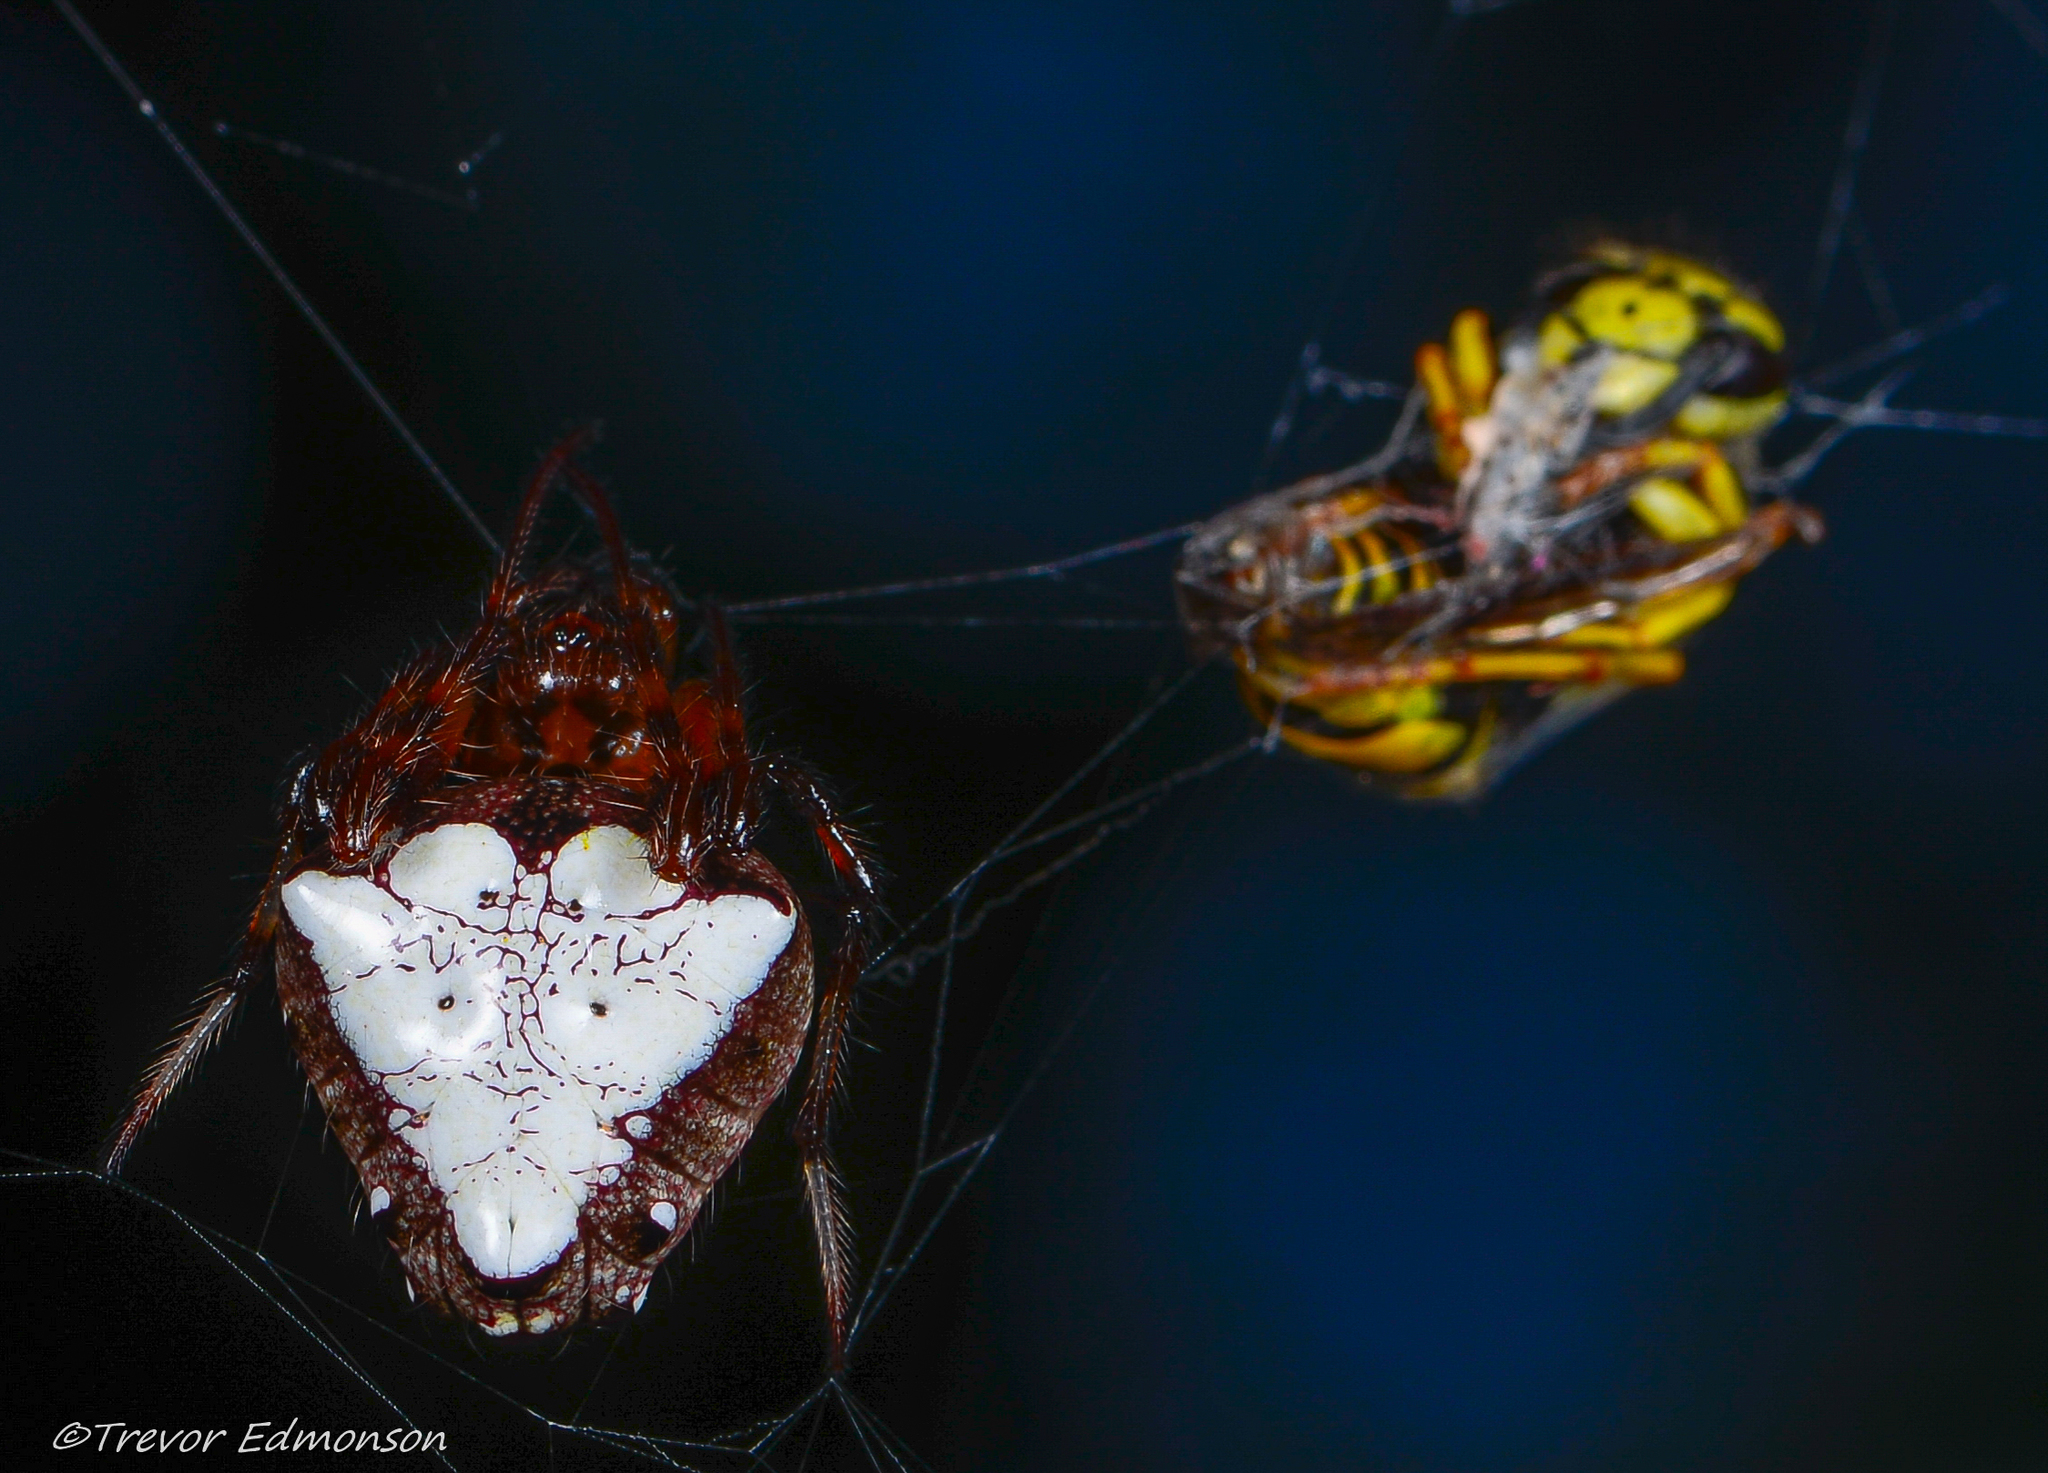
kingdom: Animalia
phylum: Arthropoda
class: Arachnida
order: Araneae
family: Araneidae
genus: Verrucosa
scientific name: Verrucosa arenata
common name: Orb weavers
